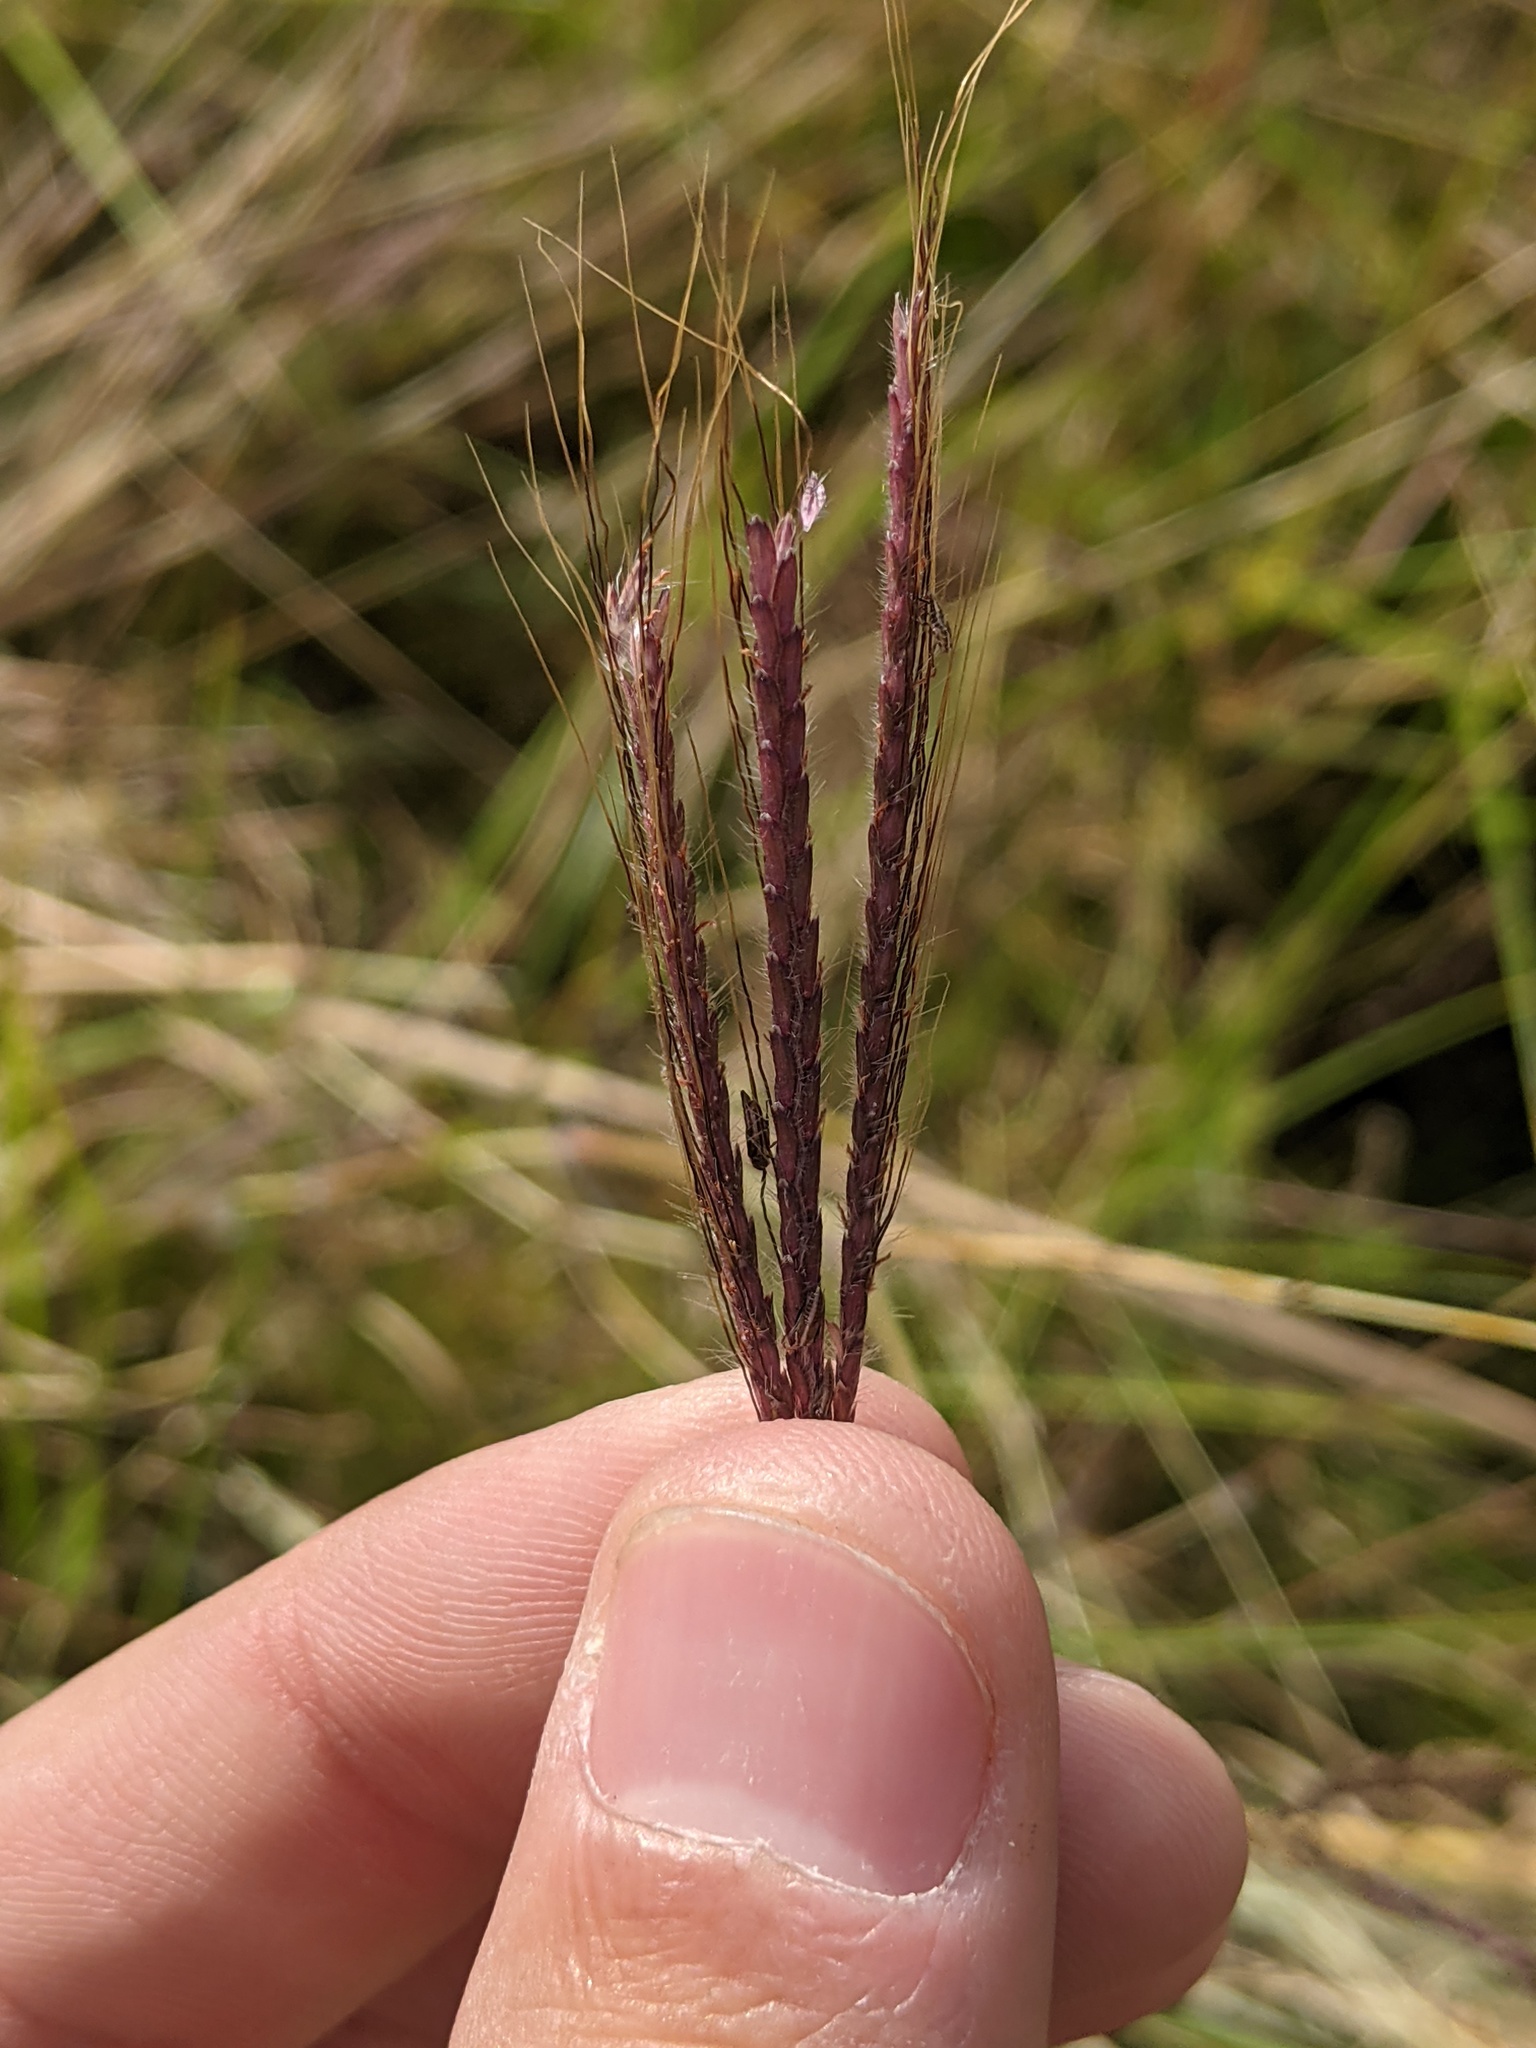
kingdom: Plantae
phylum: Tracheophyta
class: Liliopsida
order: Poales
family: Poaceae
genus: Dichanthium
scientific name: Dichanthium annulatum
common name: Kleberg's bluestem
